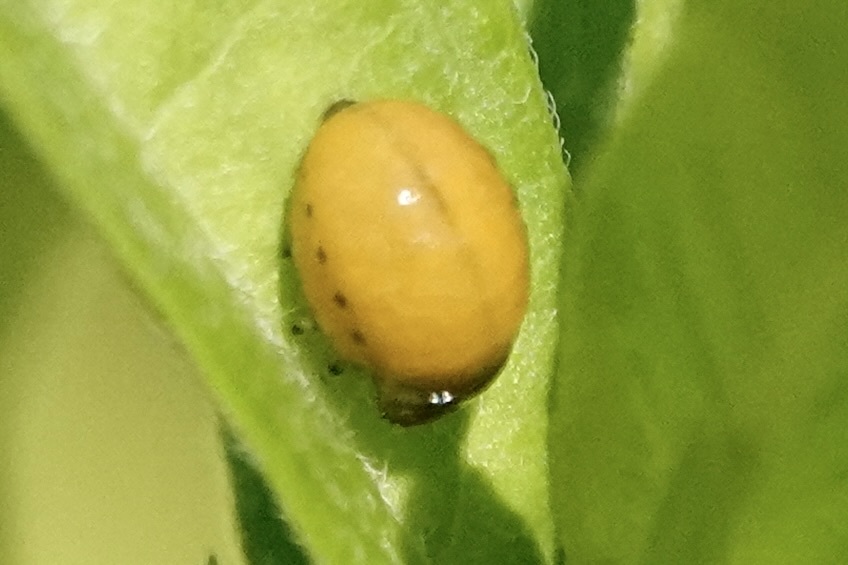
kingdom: Animalia
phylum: Arthropoda
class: Insecta
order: Coleoptera
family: Chrysomelidae
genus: Labidomera
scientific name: Labidomera clivicollis
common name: Swamp milkweed leaf beetle
